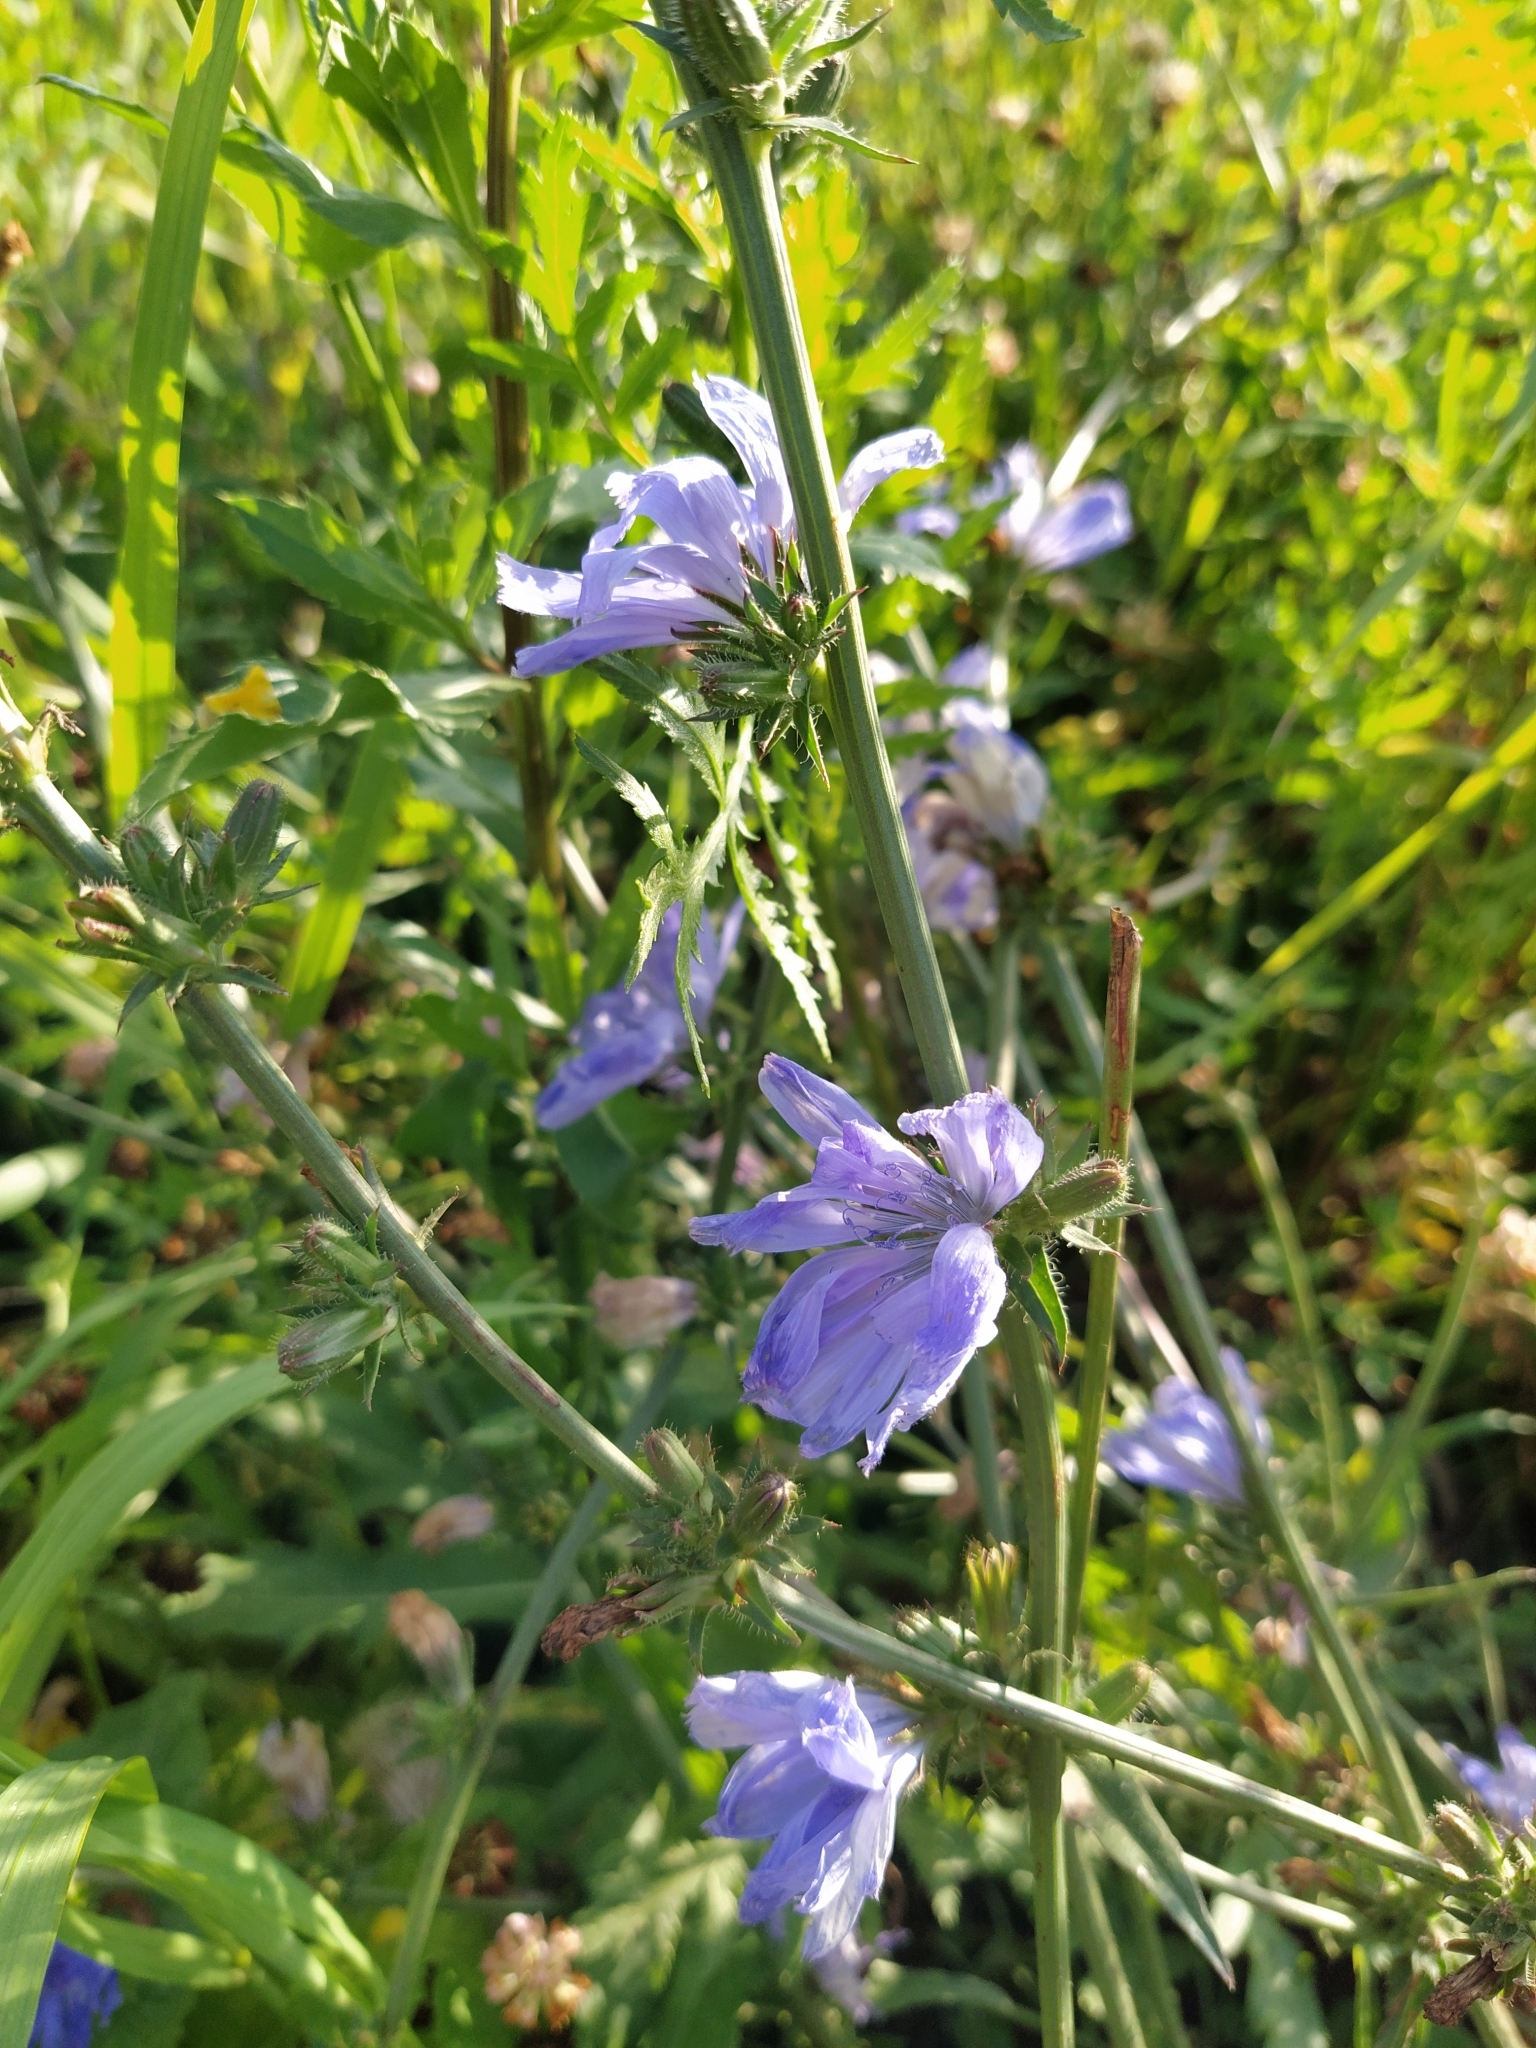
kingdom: Plantae
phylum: Tracheophyta
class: Magnoliopsida
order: Asterales
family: Asteraceae
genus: Cichorium
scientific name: Cichorium intybus
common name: Chicory
